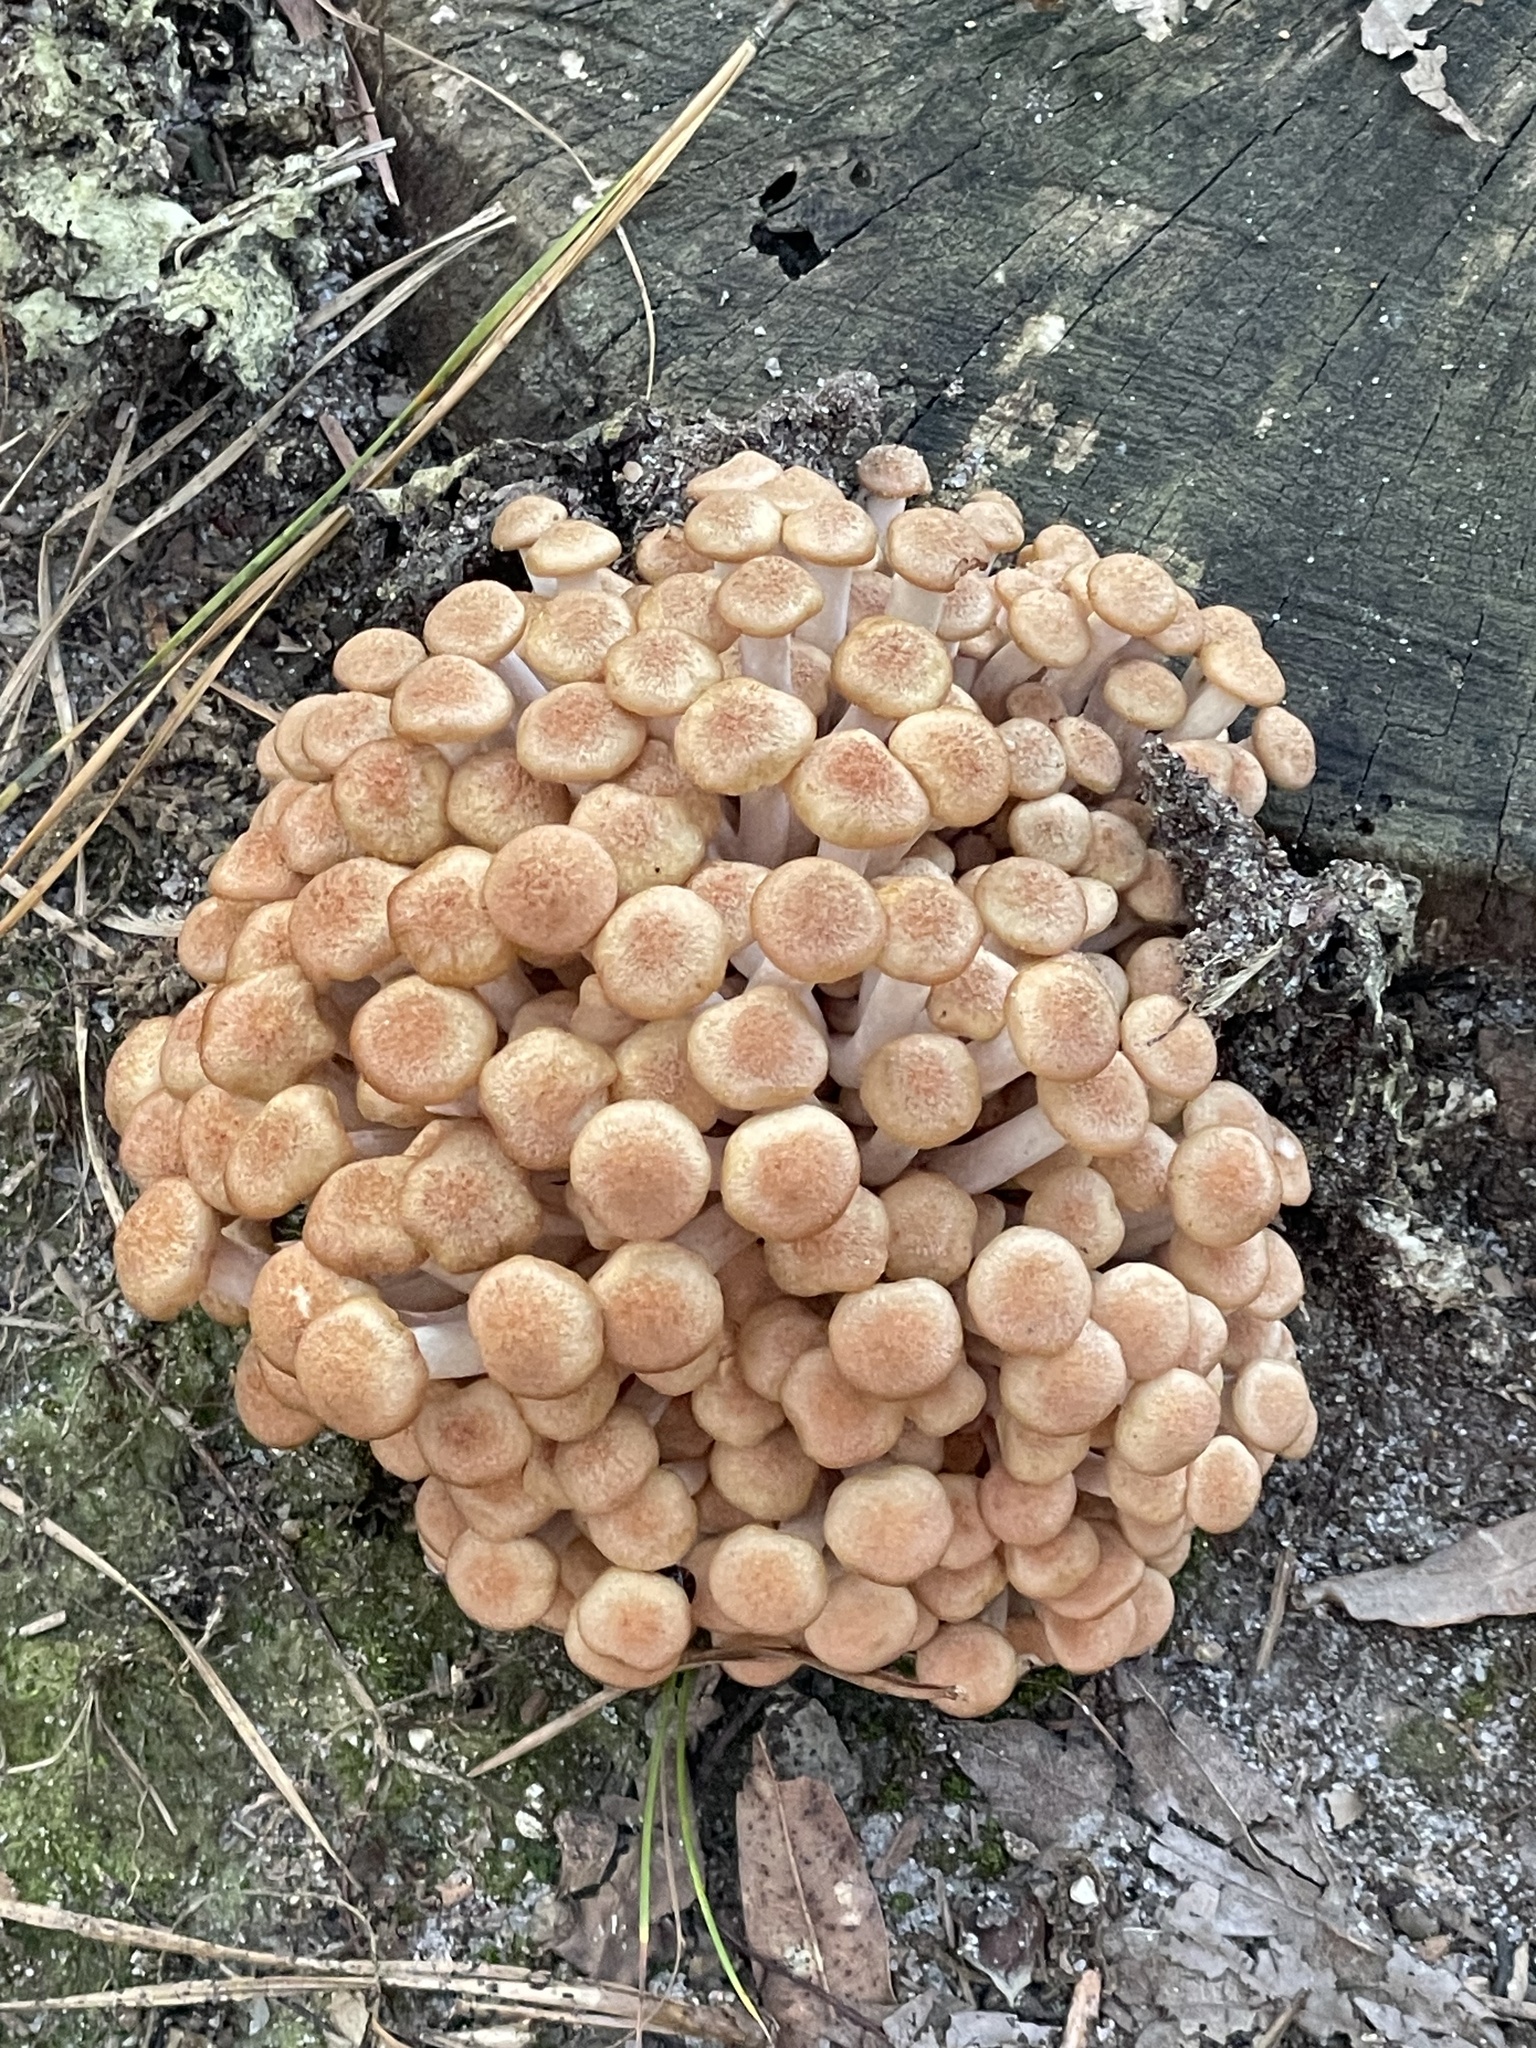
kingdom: Fungi
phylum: Basidiomycota
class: Agaricomycetes
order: Agaricales
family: Physalacriaceae
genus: Desarmillaria
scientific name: Desarmillaria caespitosa
